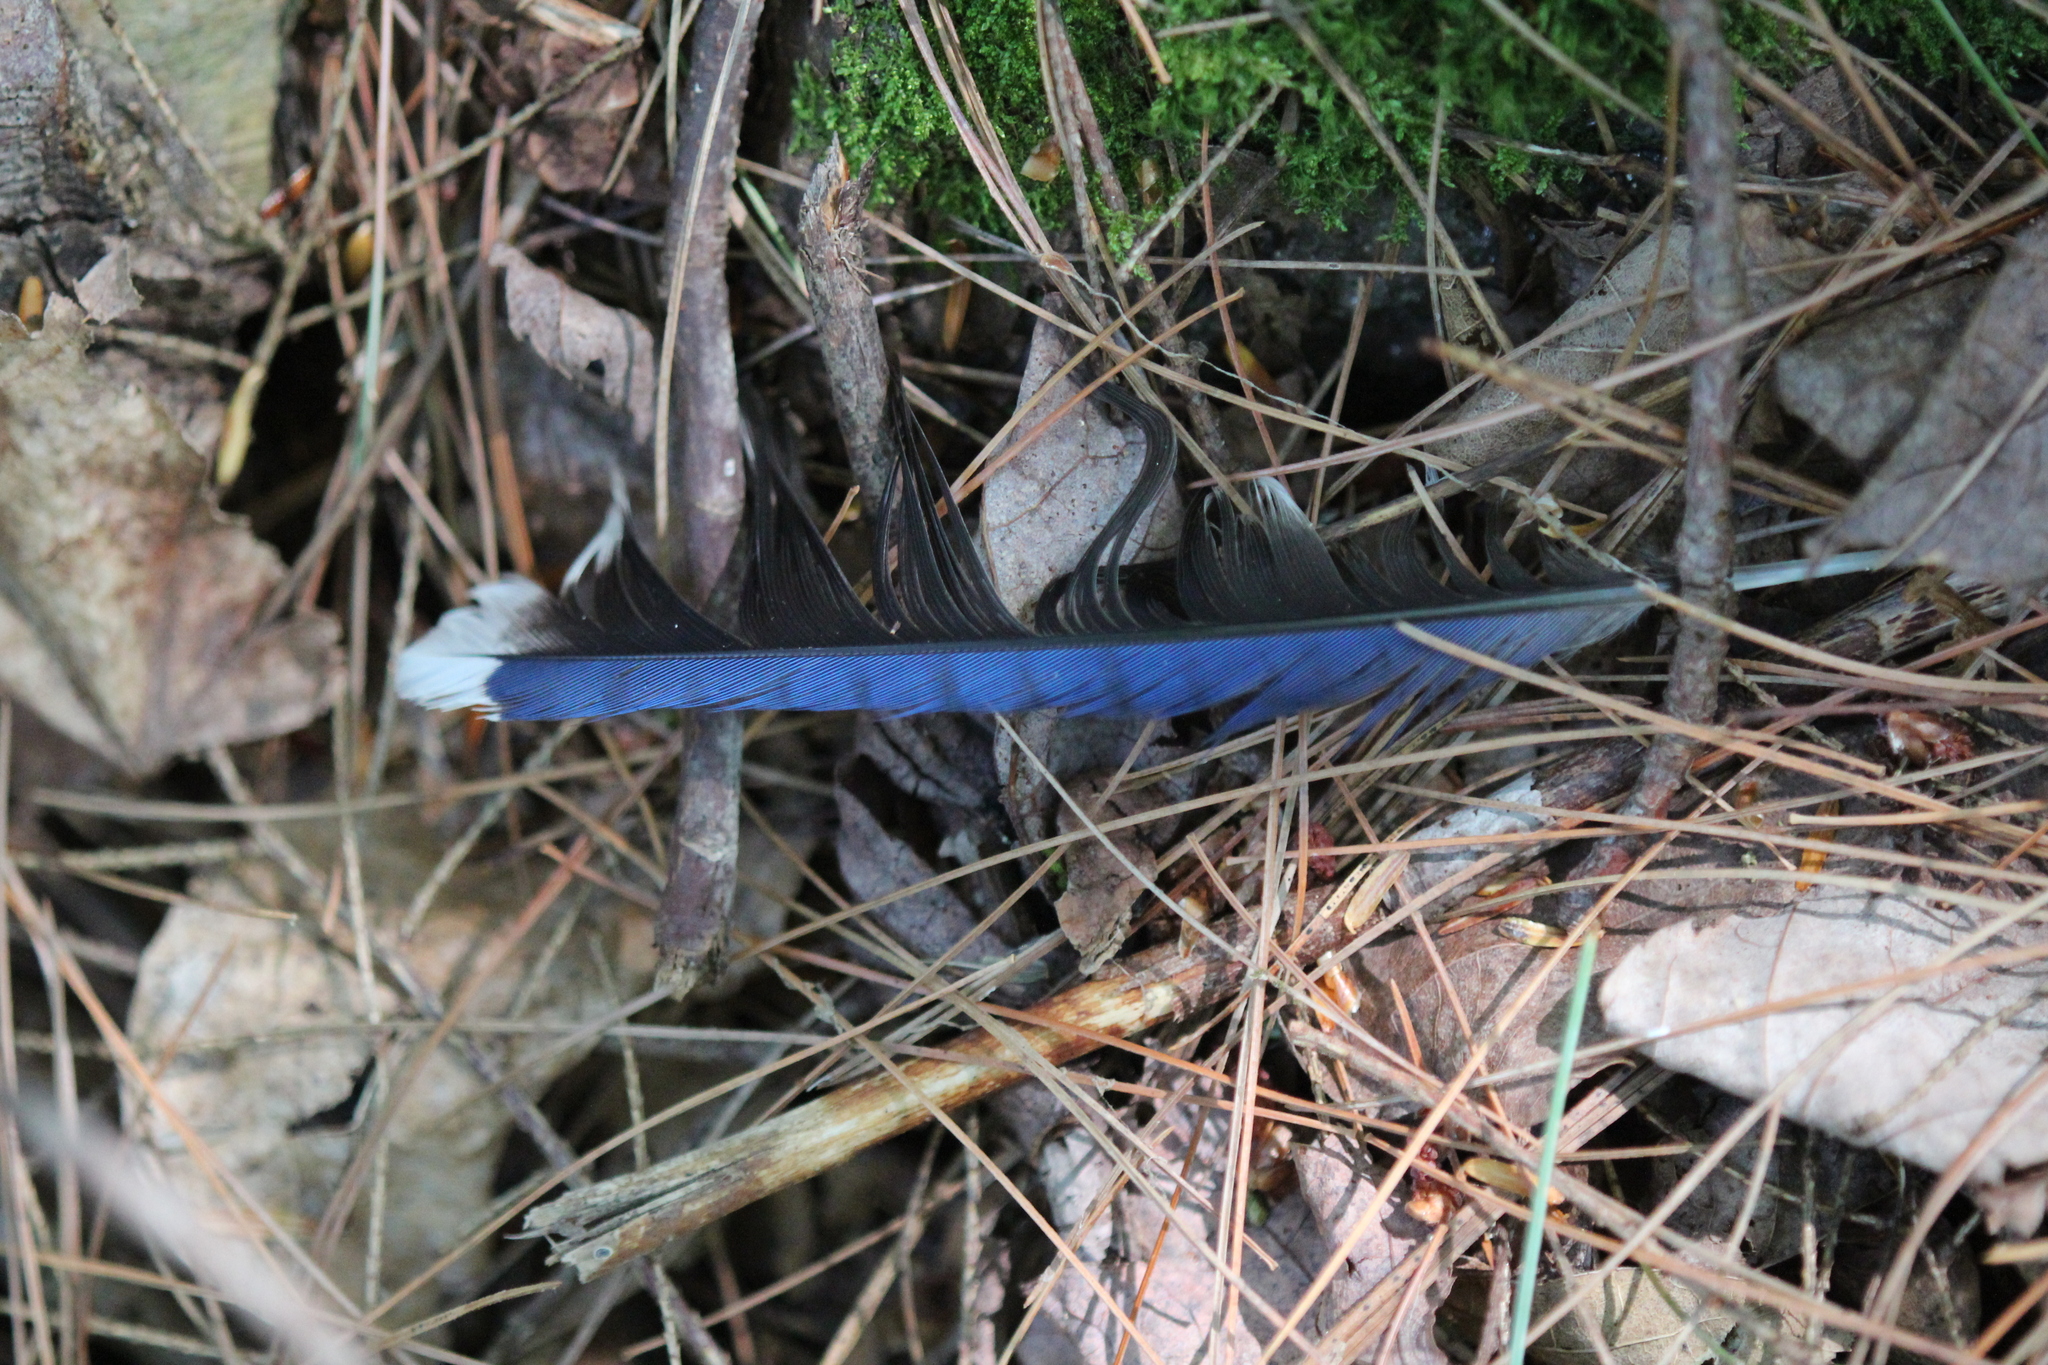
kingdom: Animalia
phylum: Chordata
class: Aves
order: Passeriformes
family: Corvidae
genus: Cyanocitta
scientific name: Cyanocitta cristata
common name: Blue jay
